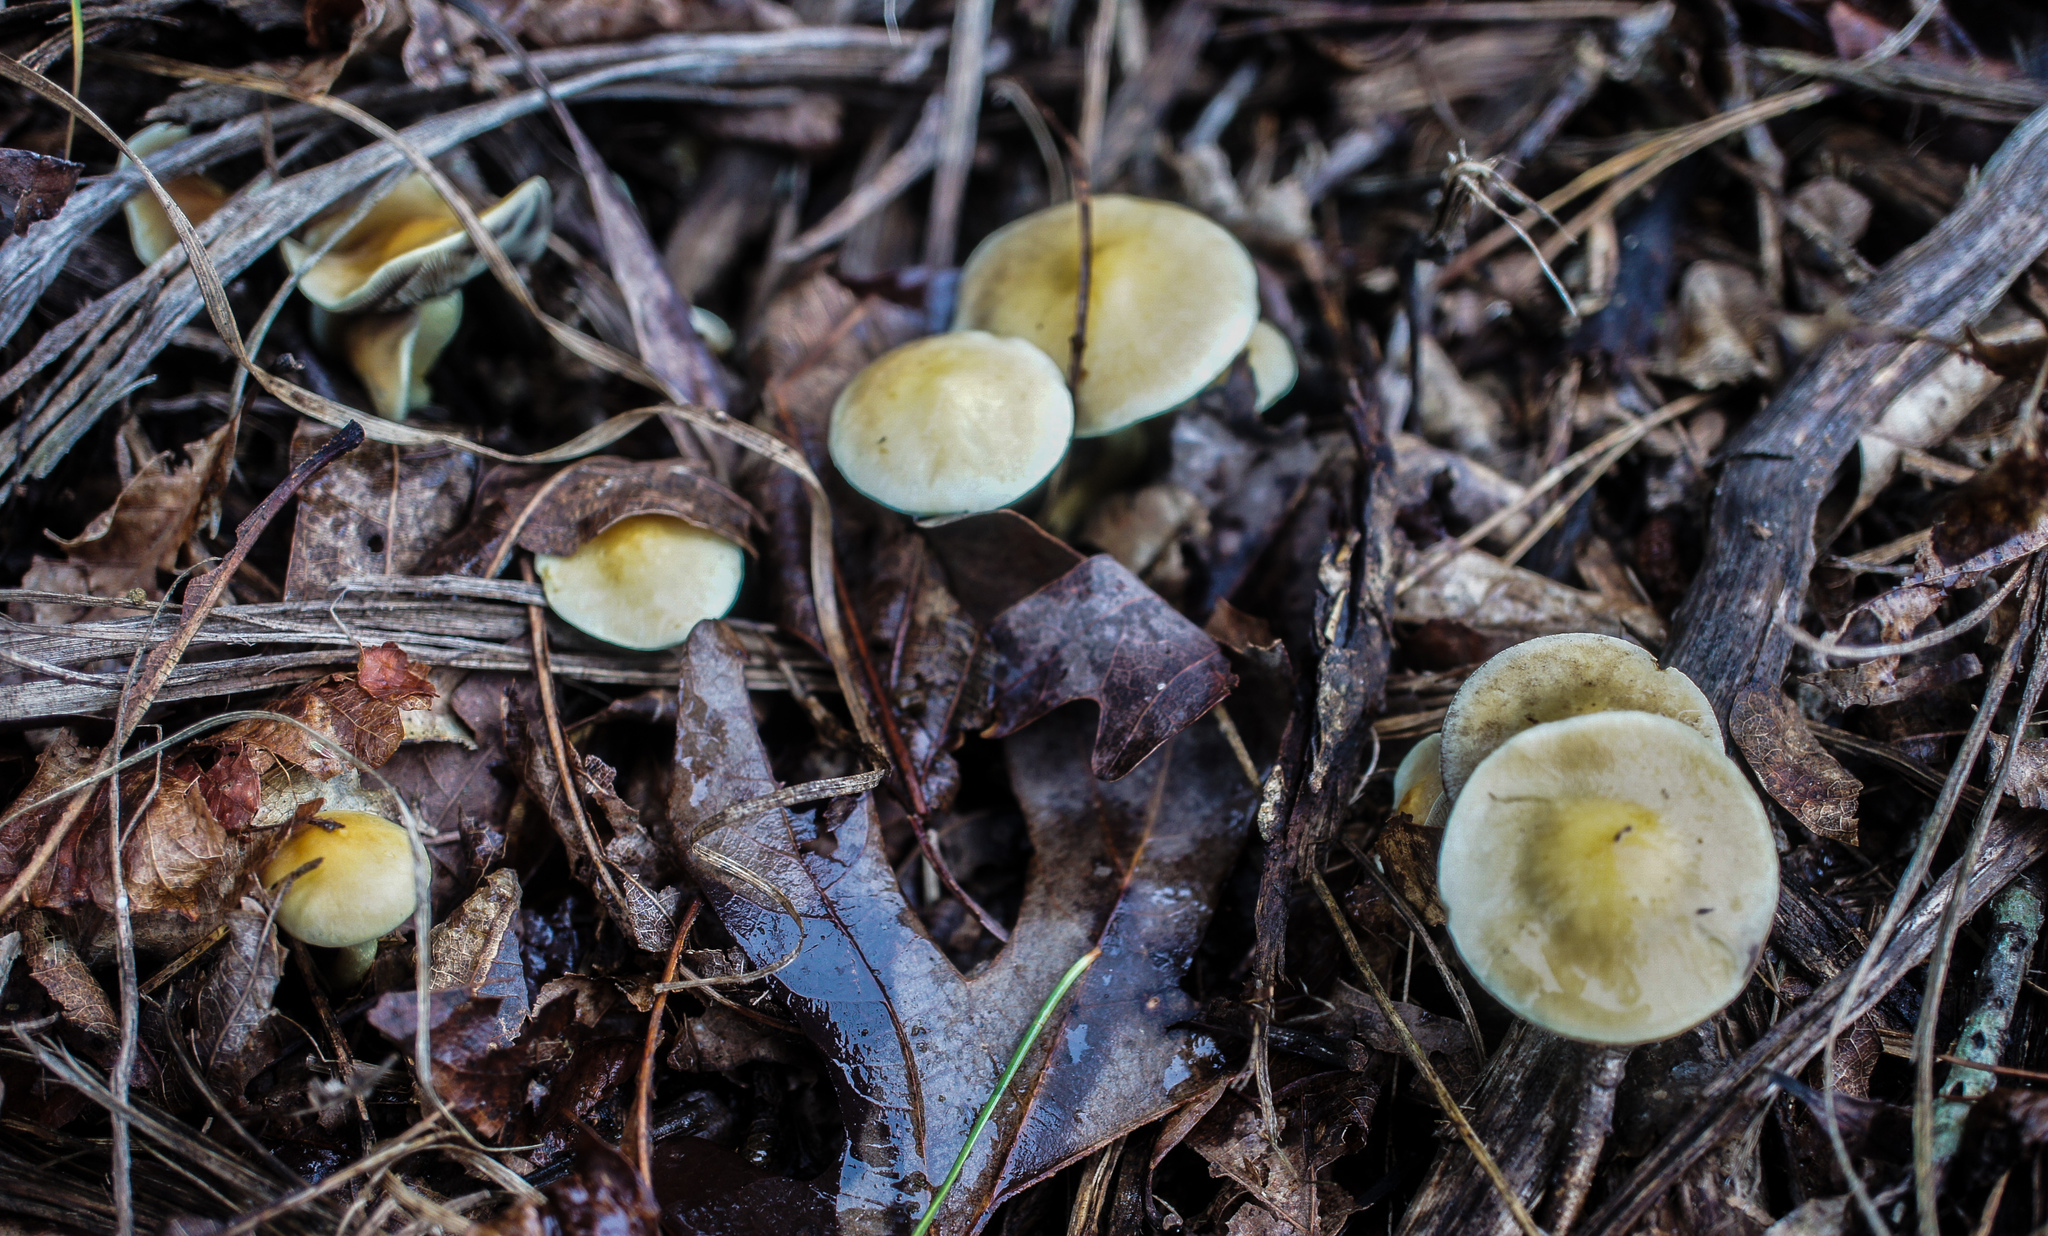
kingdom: Fungi
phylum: Basidiomycota
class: Agaricomycetes
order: Agaricales
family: Strophariaceae
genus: Hypholoma
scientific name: Hypholoma fasciculare
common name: Sulphur tuft
